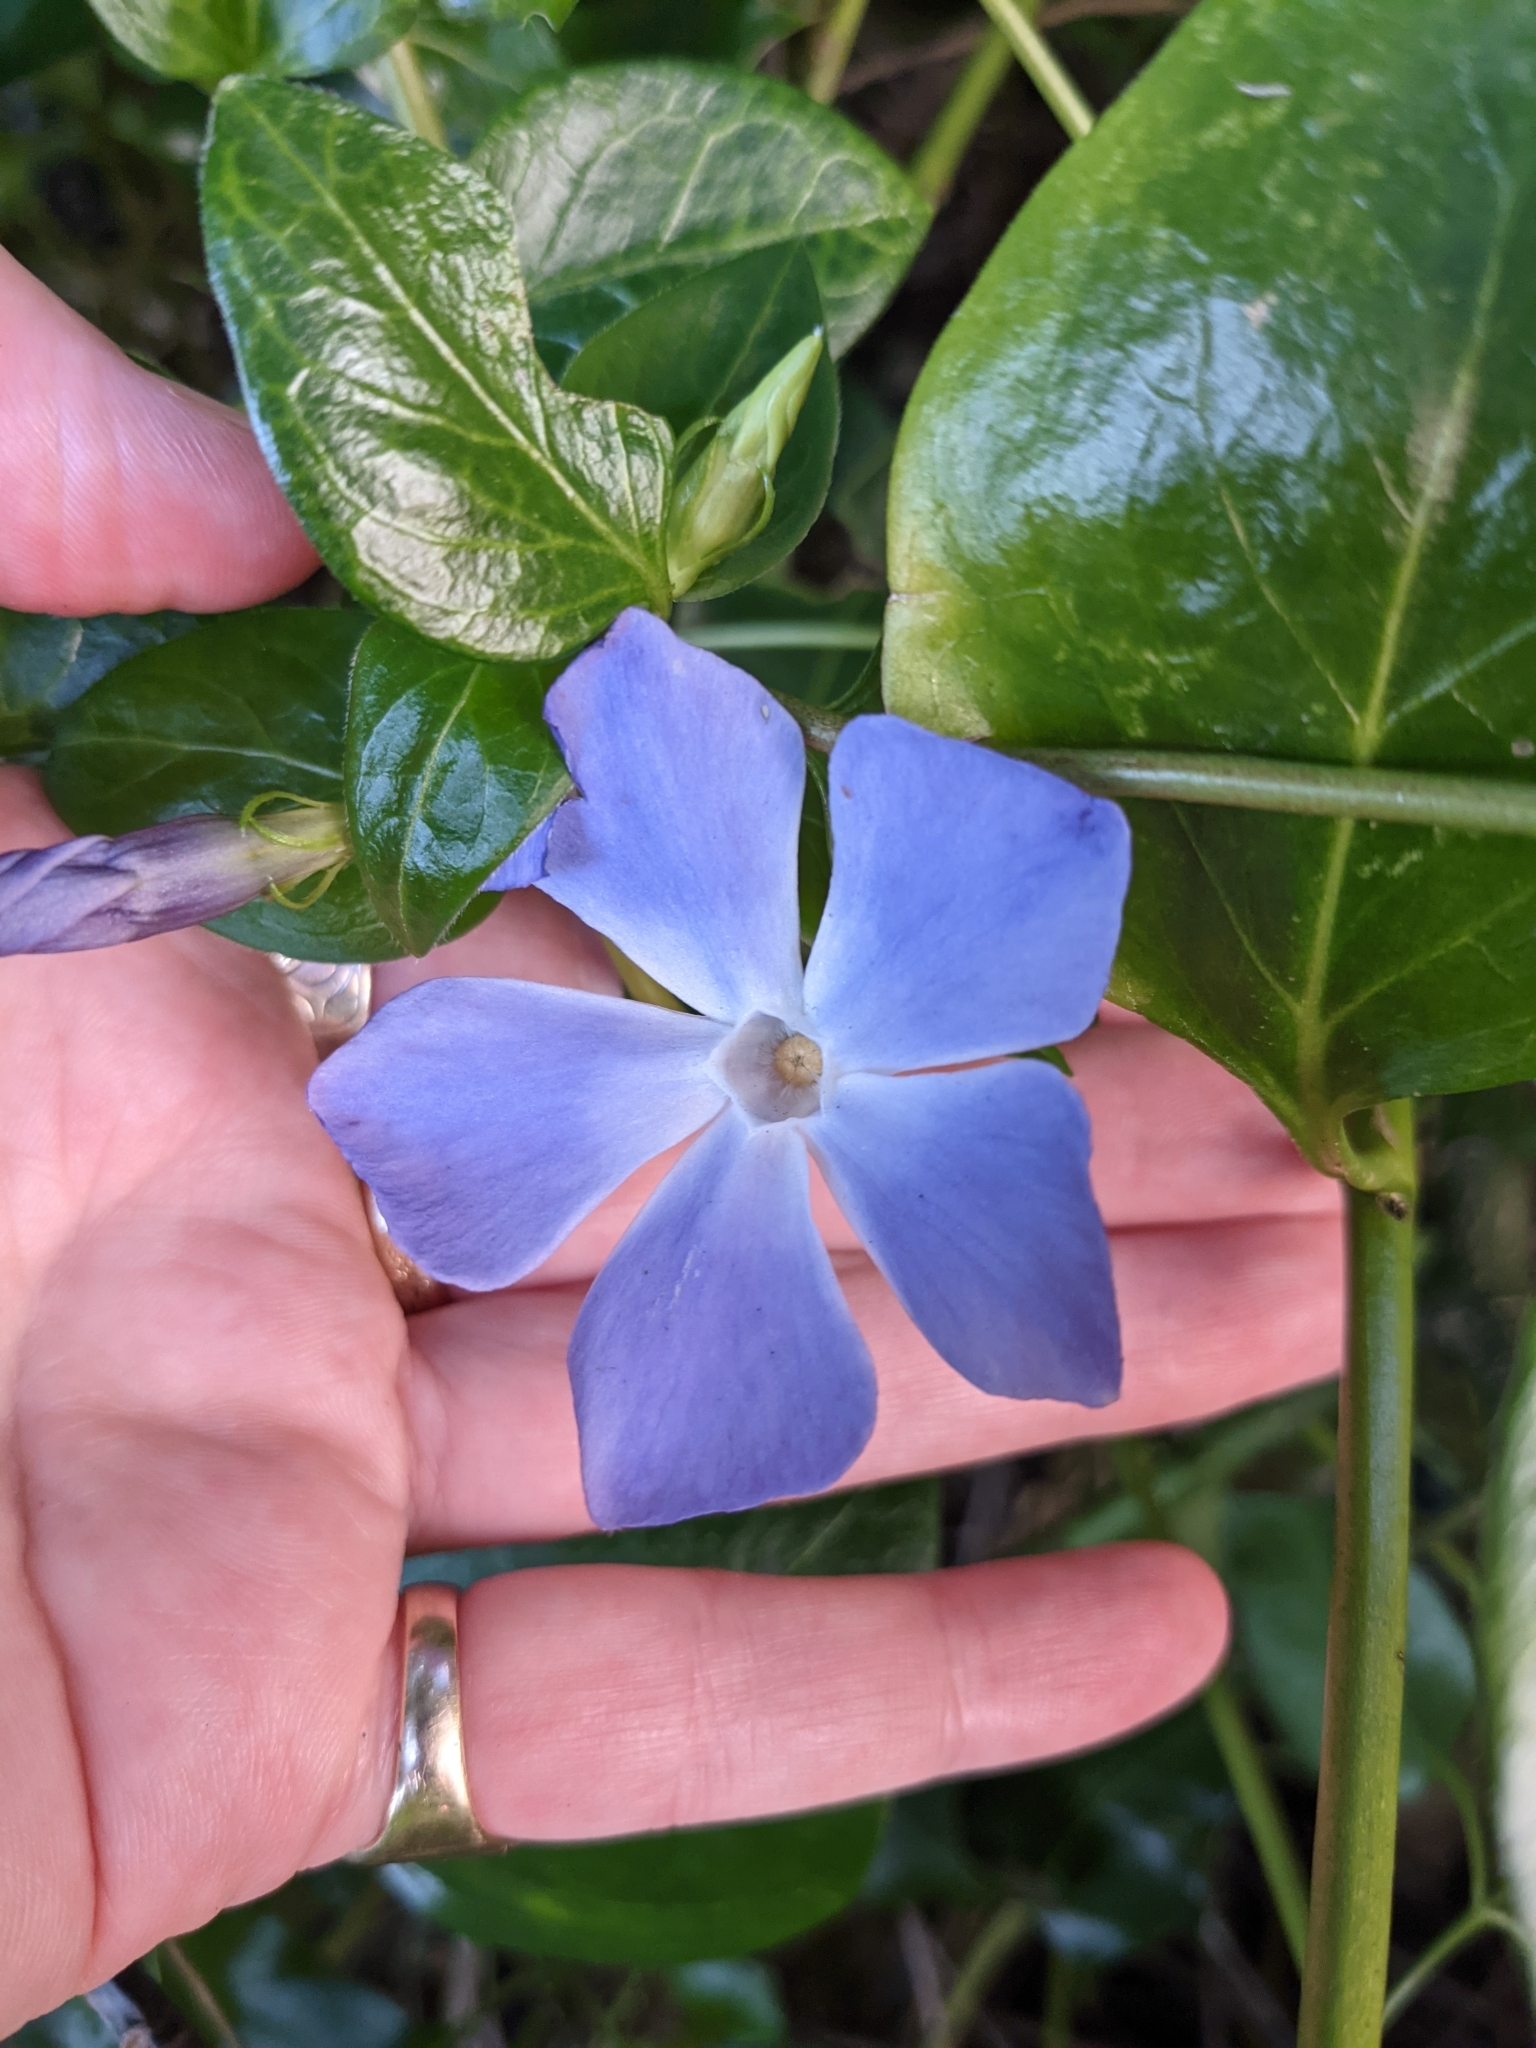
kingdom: Plantae
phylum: Tracheophyta
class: Magnoliopsida
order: Gentianales
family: Apocynaceae
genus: Vinca
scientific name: Vinca major
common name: Greater periwinkle
